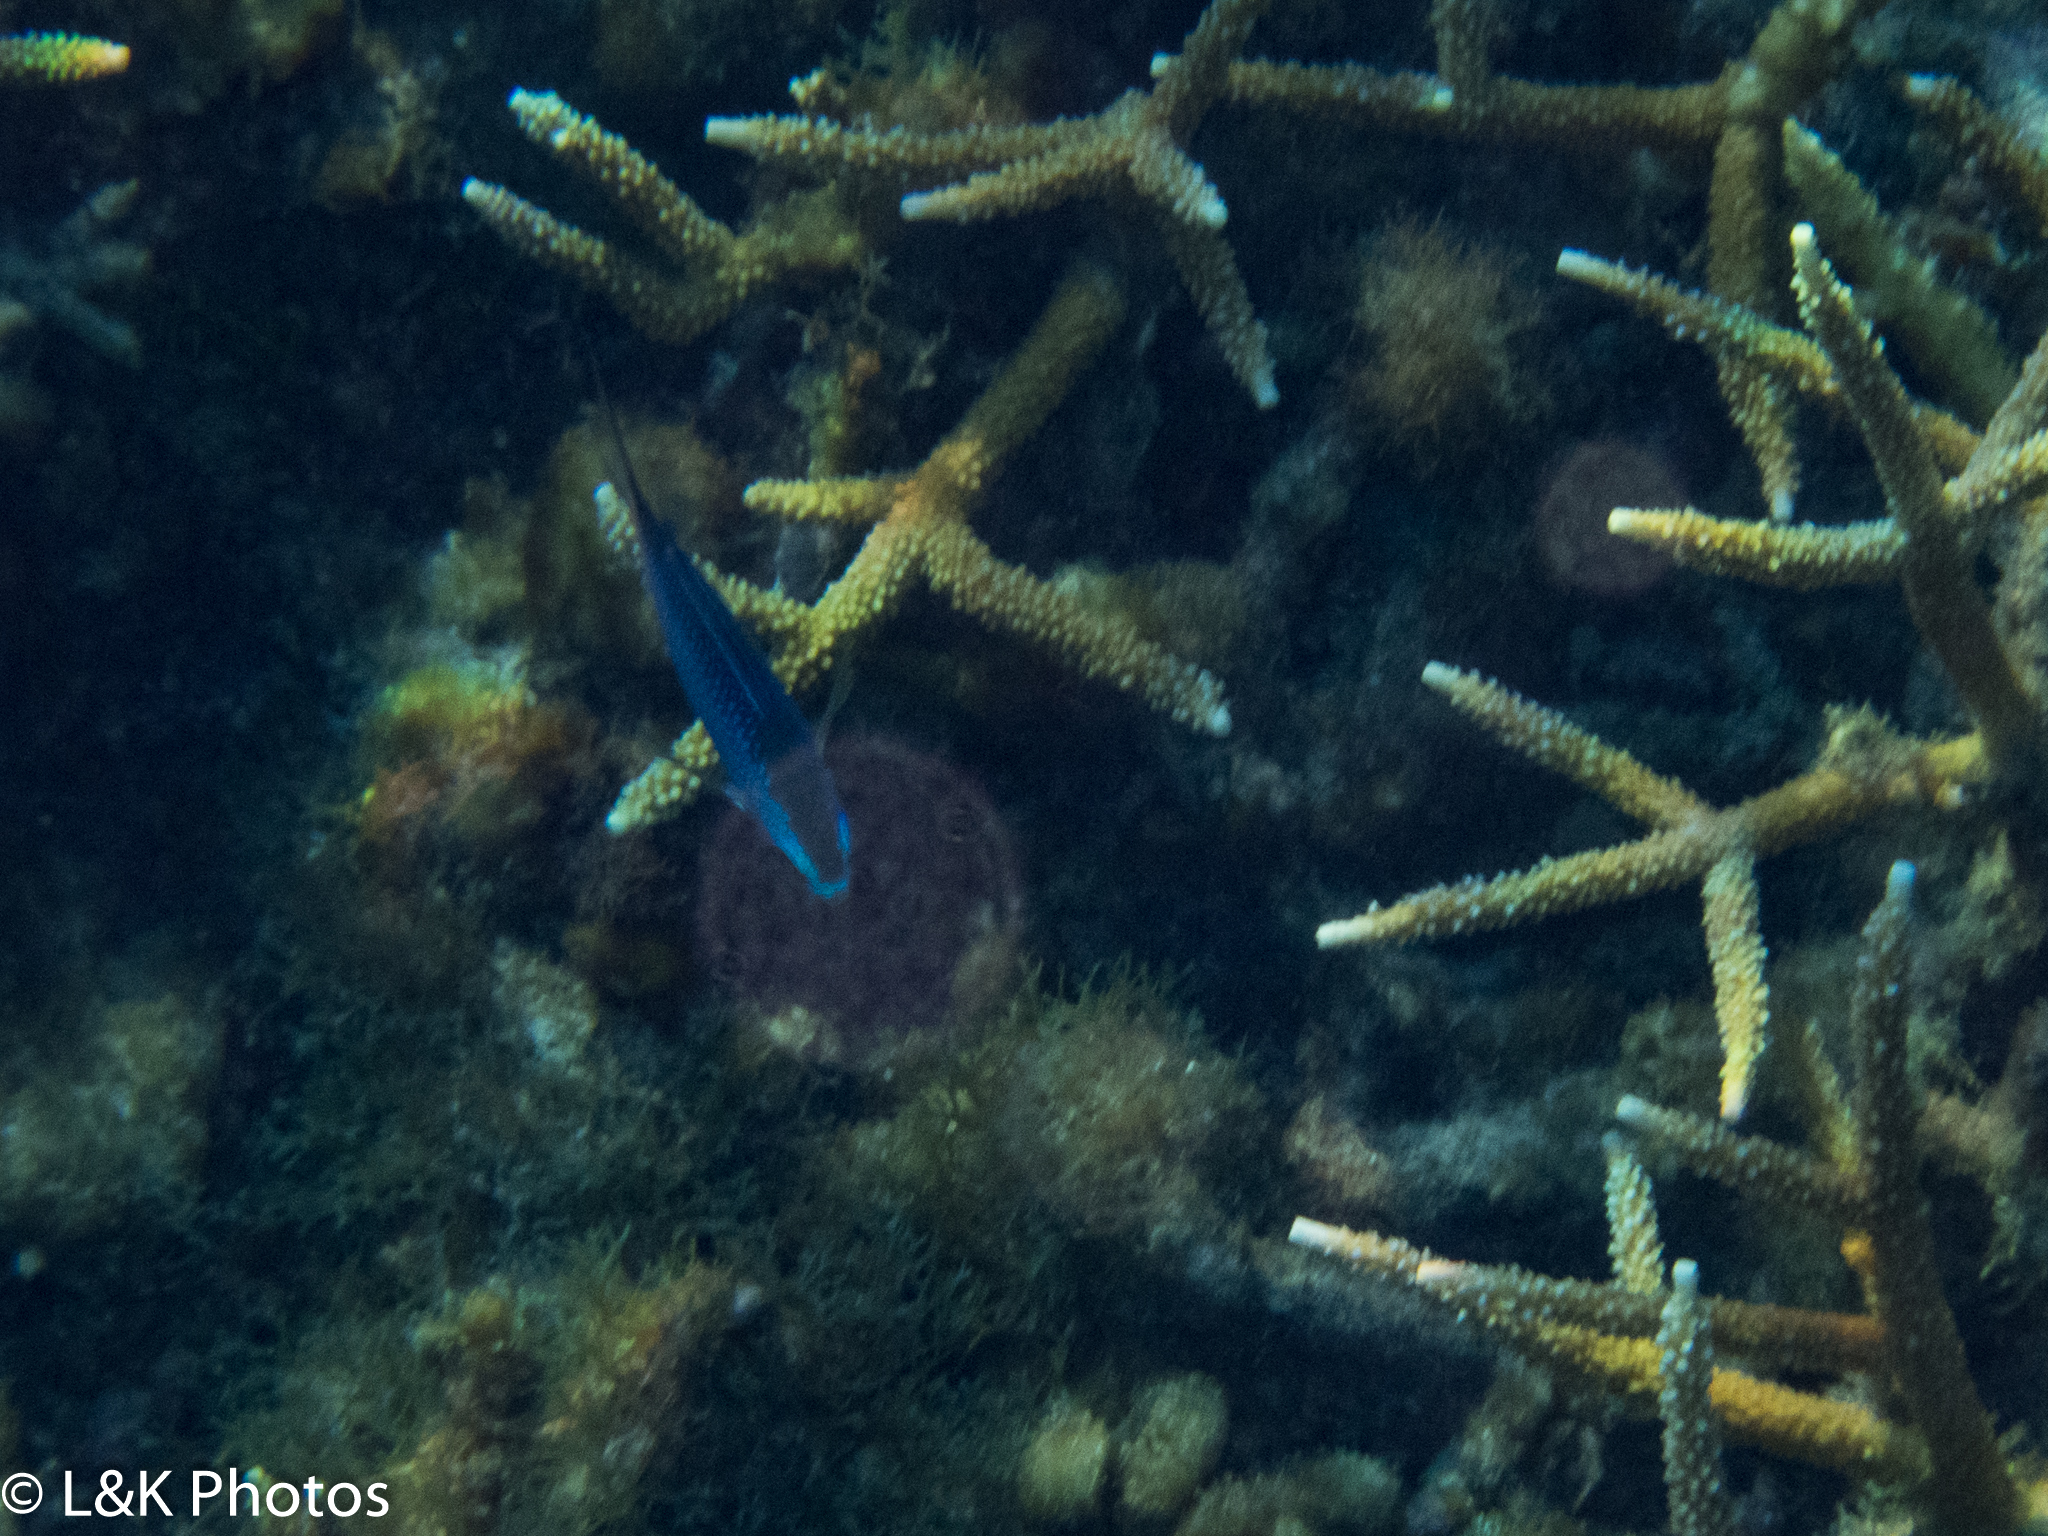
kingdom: Animalia
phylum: Chordata
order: Perciformes
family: Pomacentridae
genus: Chromis
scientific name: Chromis cyanea
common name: Blue chromis
